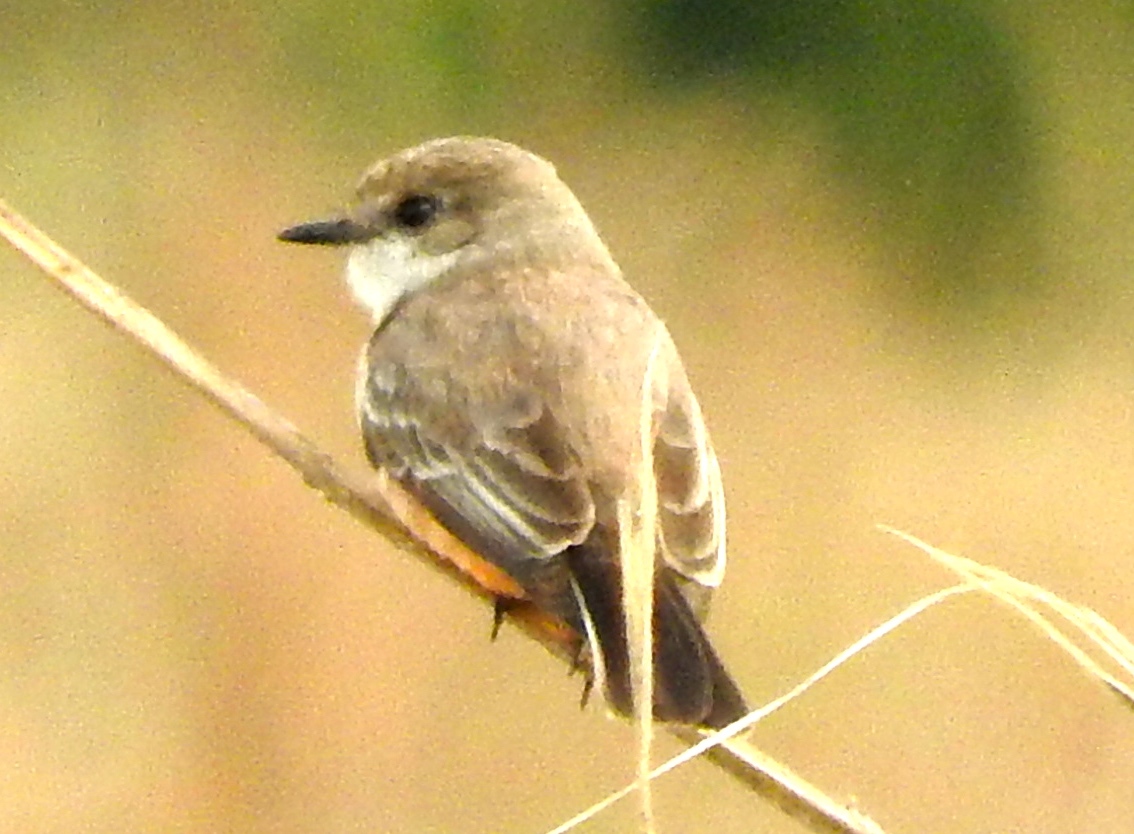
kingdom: Animalia
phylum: Chordata
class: Aves
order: Passeriformes
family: Tyrannidae
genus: Pyrocephalus
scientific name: Pyrocephalus rubinus
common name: Vermilion flycatcher
